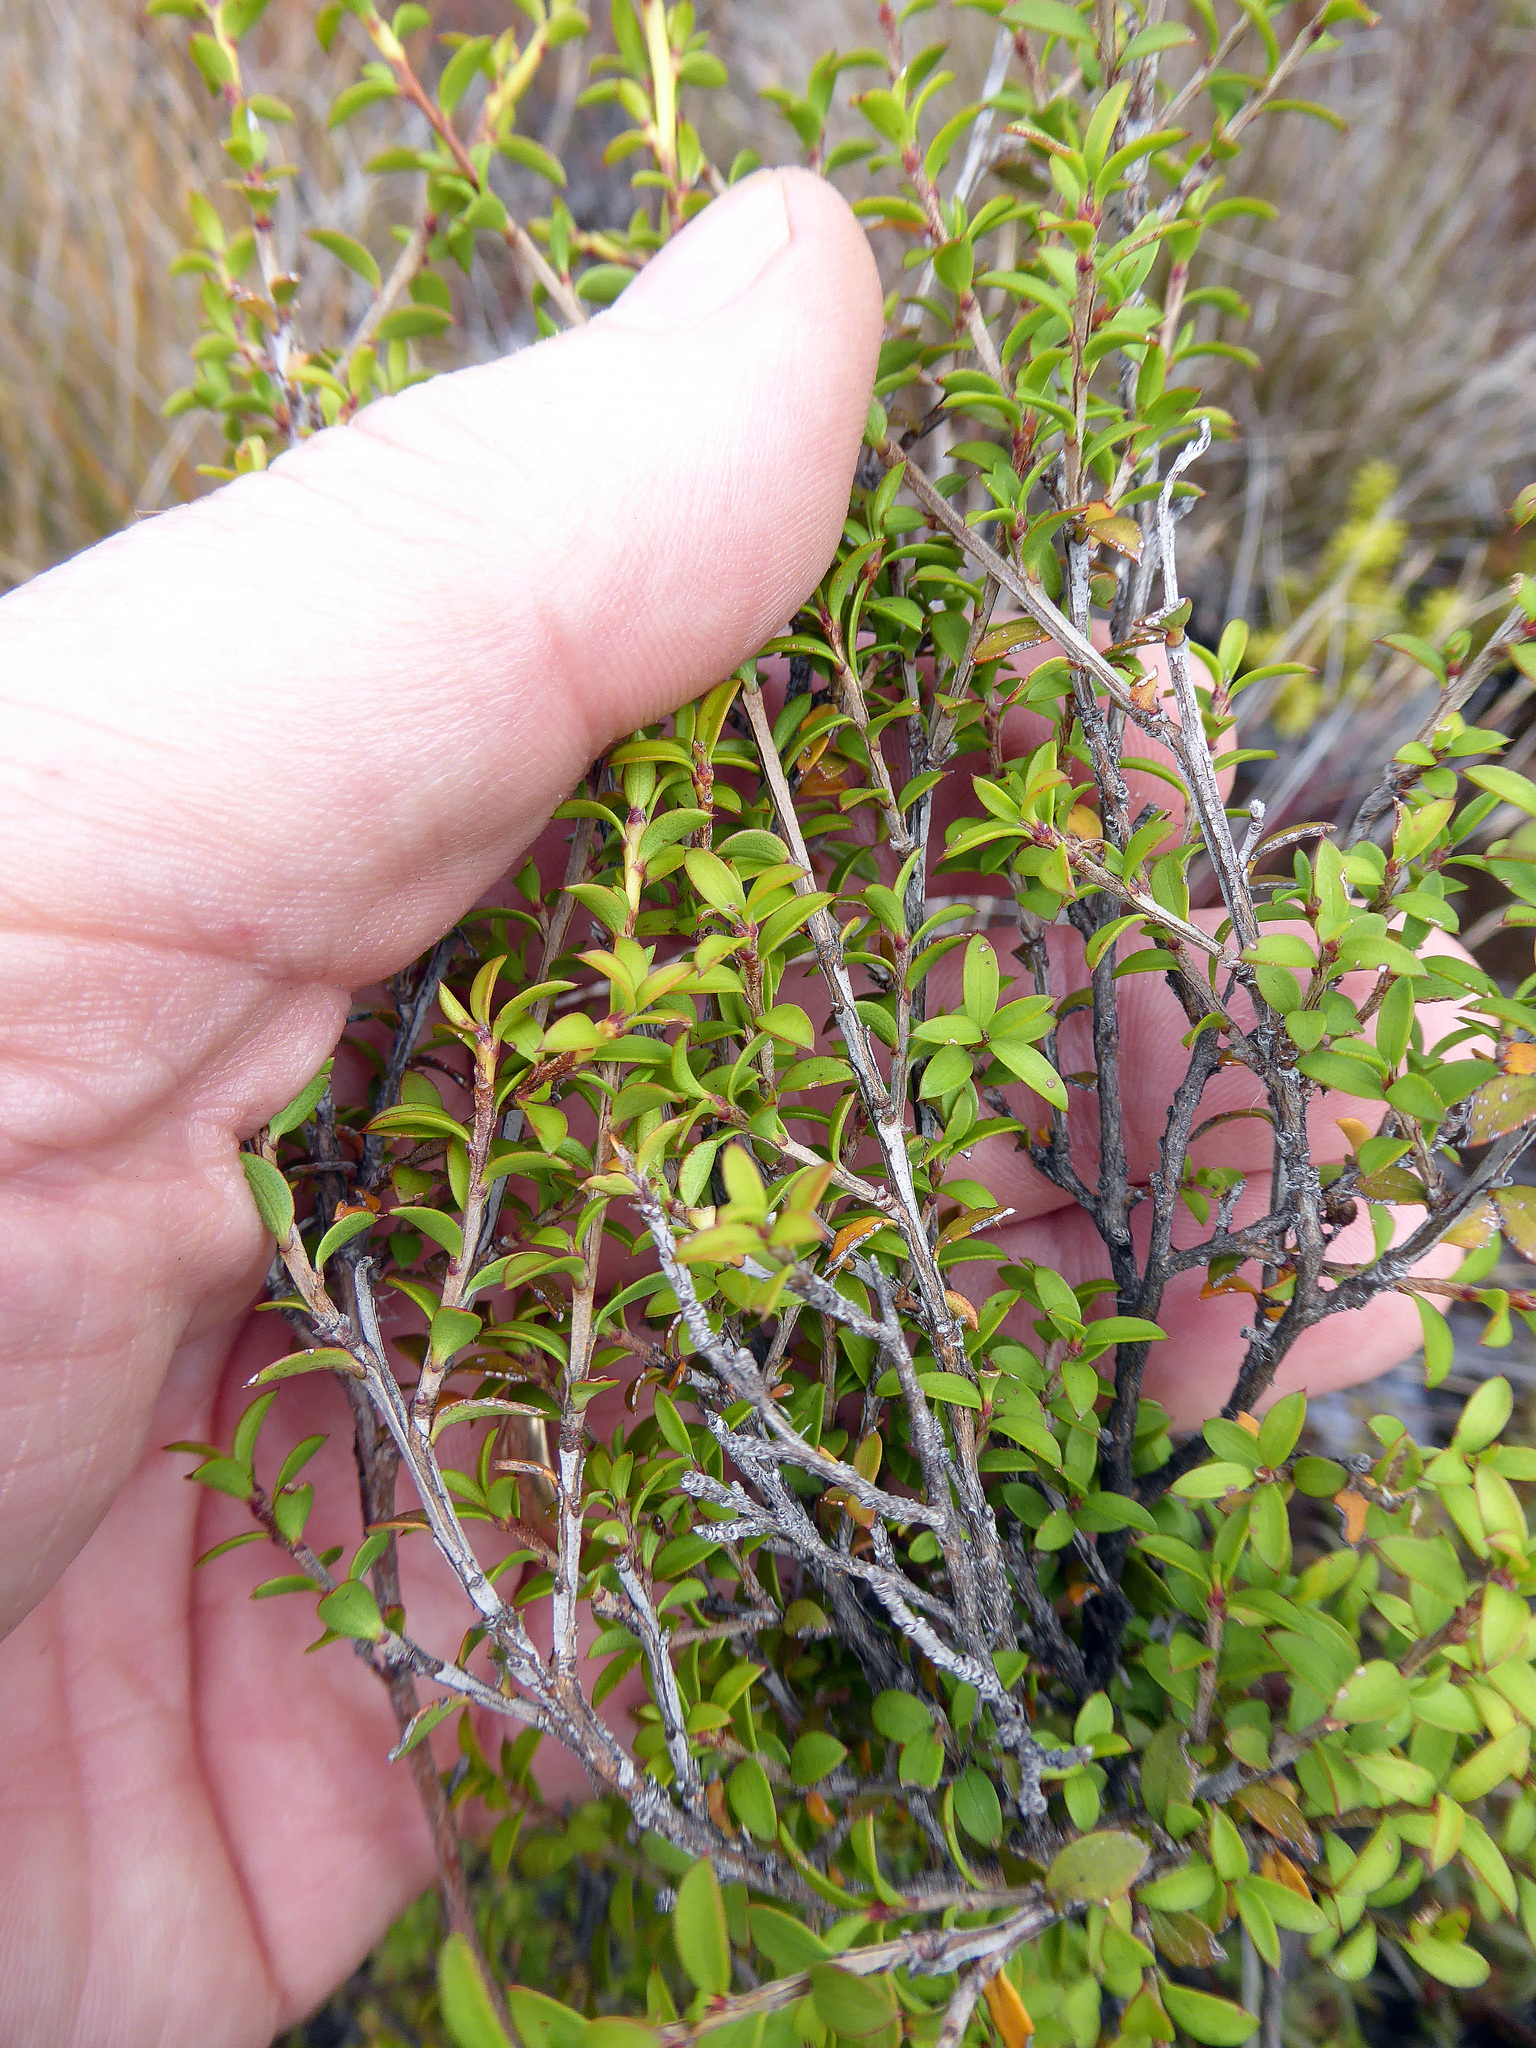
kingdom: Plantae
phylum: Tracheophyta
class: Magnoliopsida
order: Myrtales
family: Myrtaceae
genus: Leptospermum
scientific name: Leptospermum scoparium
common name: Broom tea-tree
